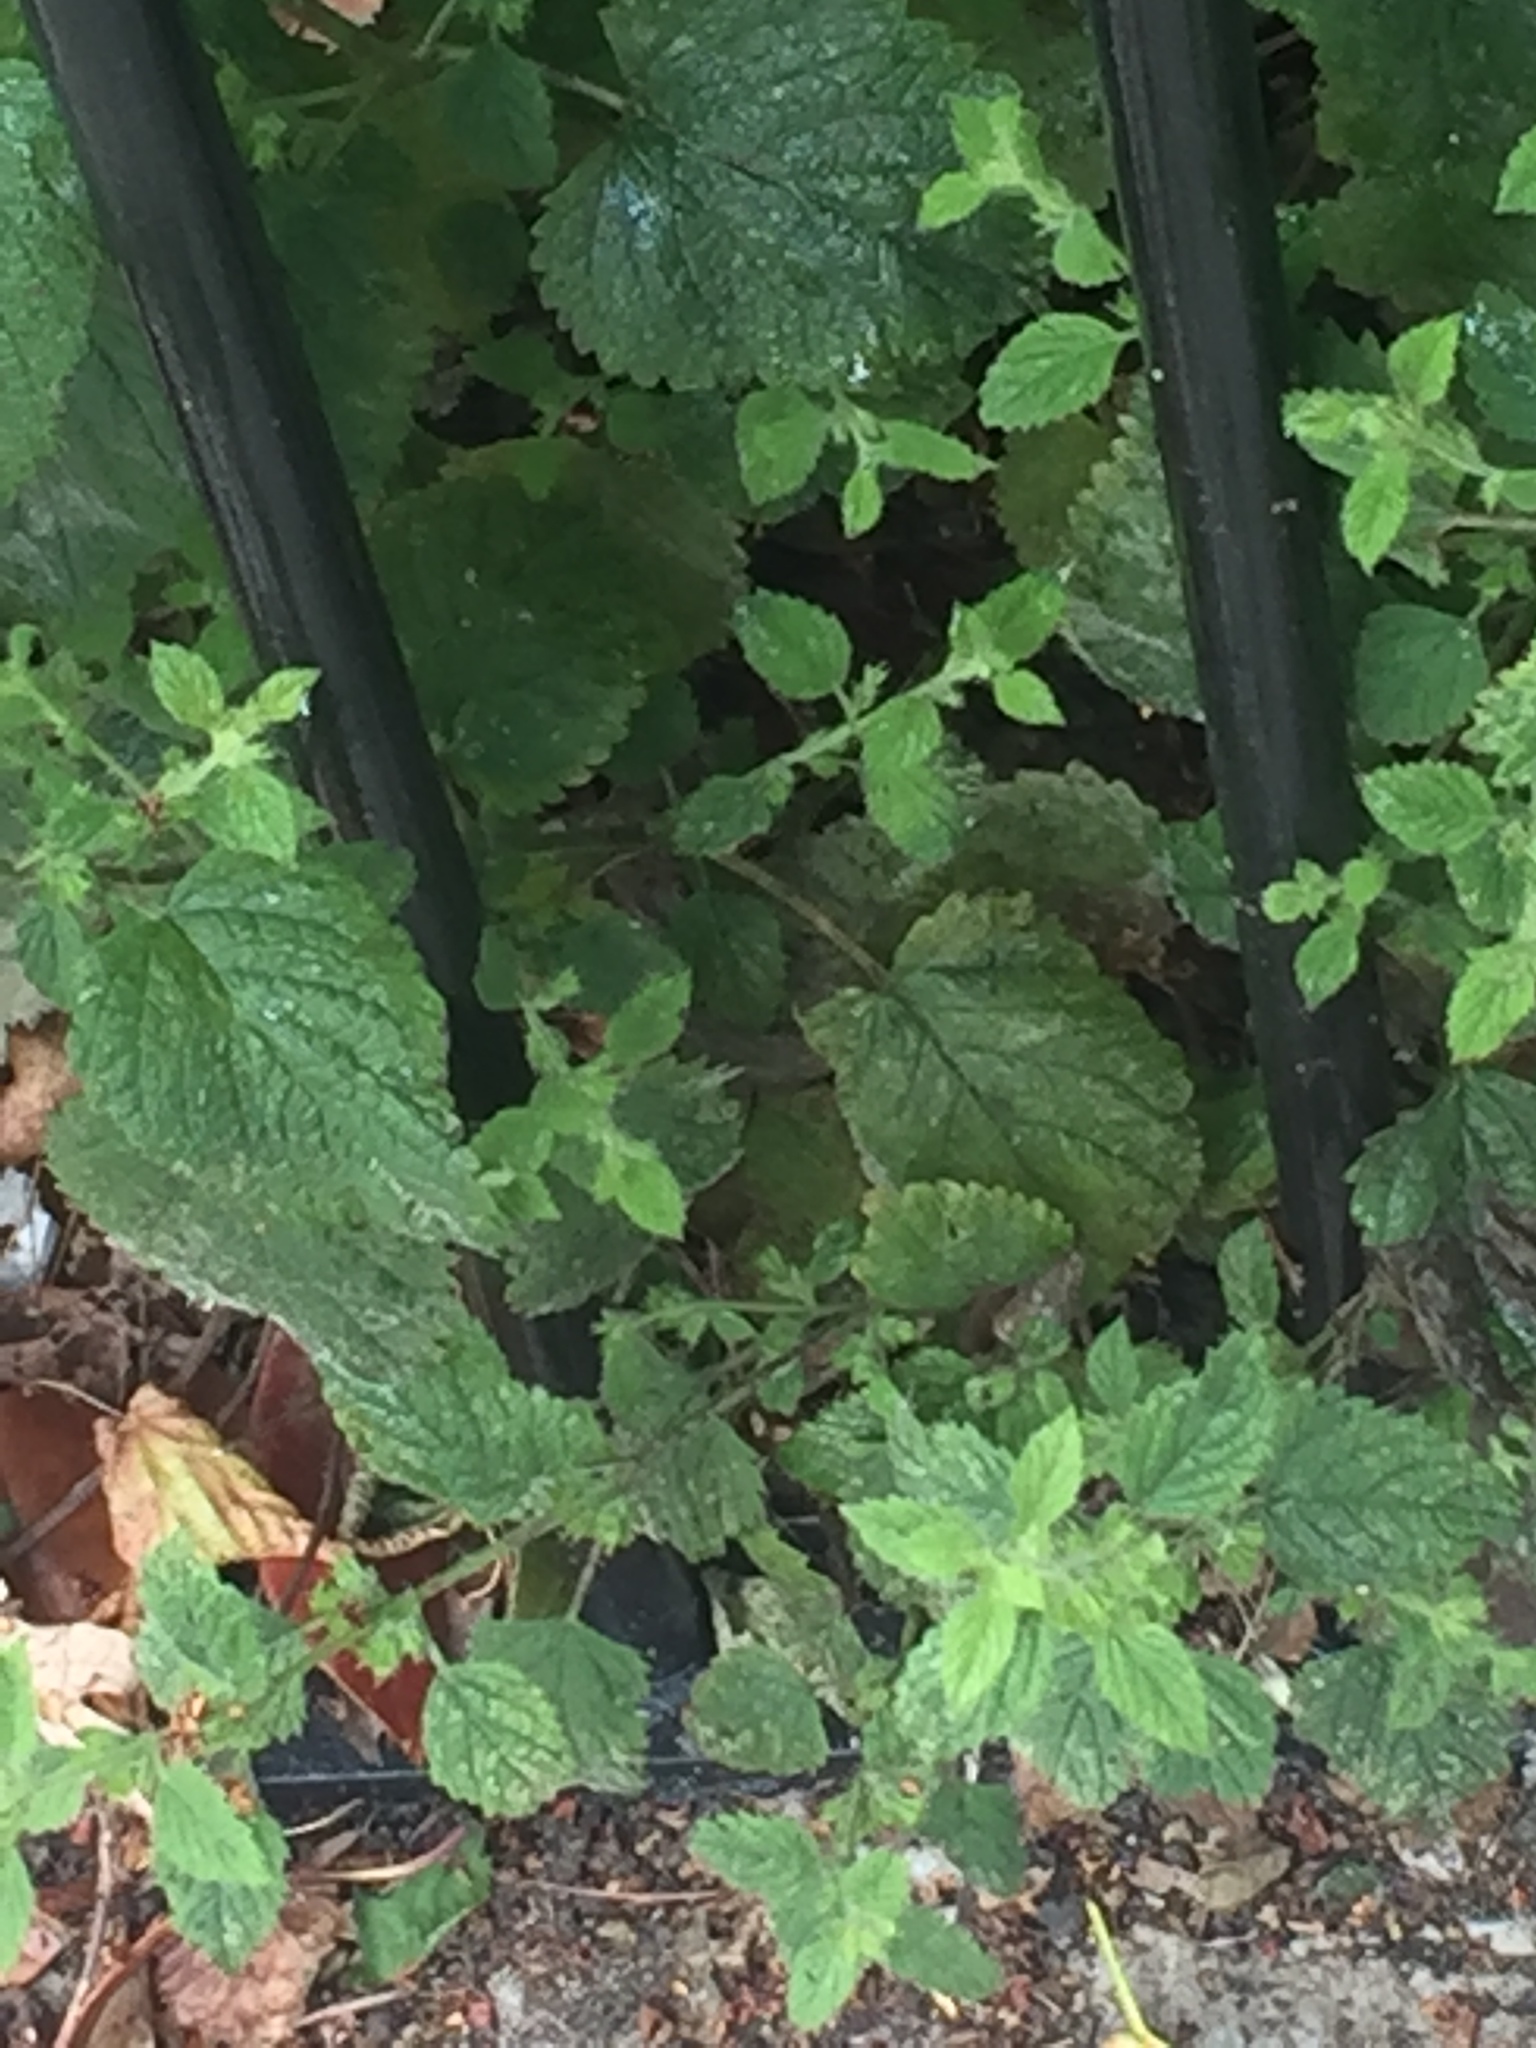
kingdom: Plantae
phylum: Tracheophyta
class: Magnoliopsida
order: Lamiales
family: Lamiaceae
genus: Melissa
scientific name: Melissa officinalis
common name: Balm
